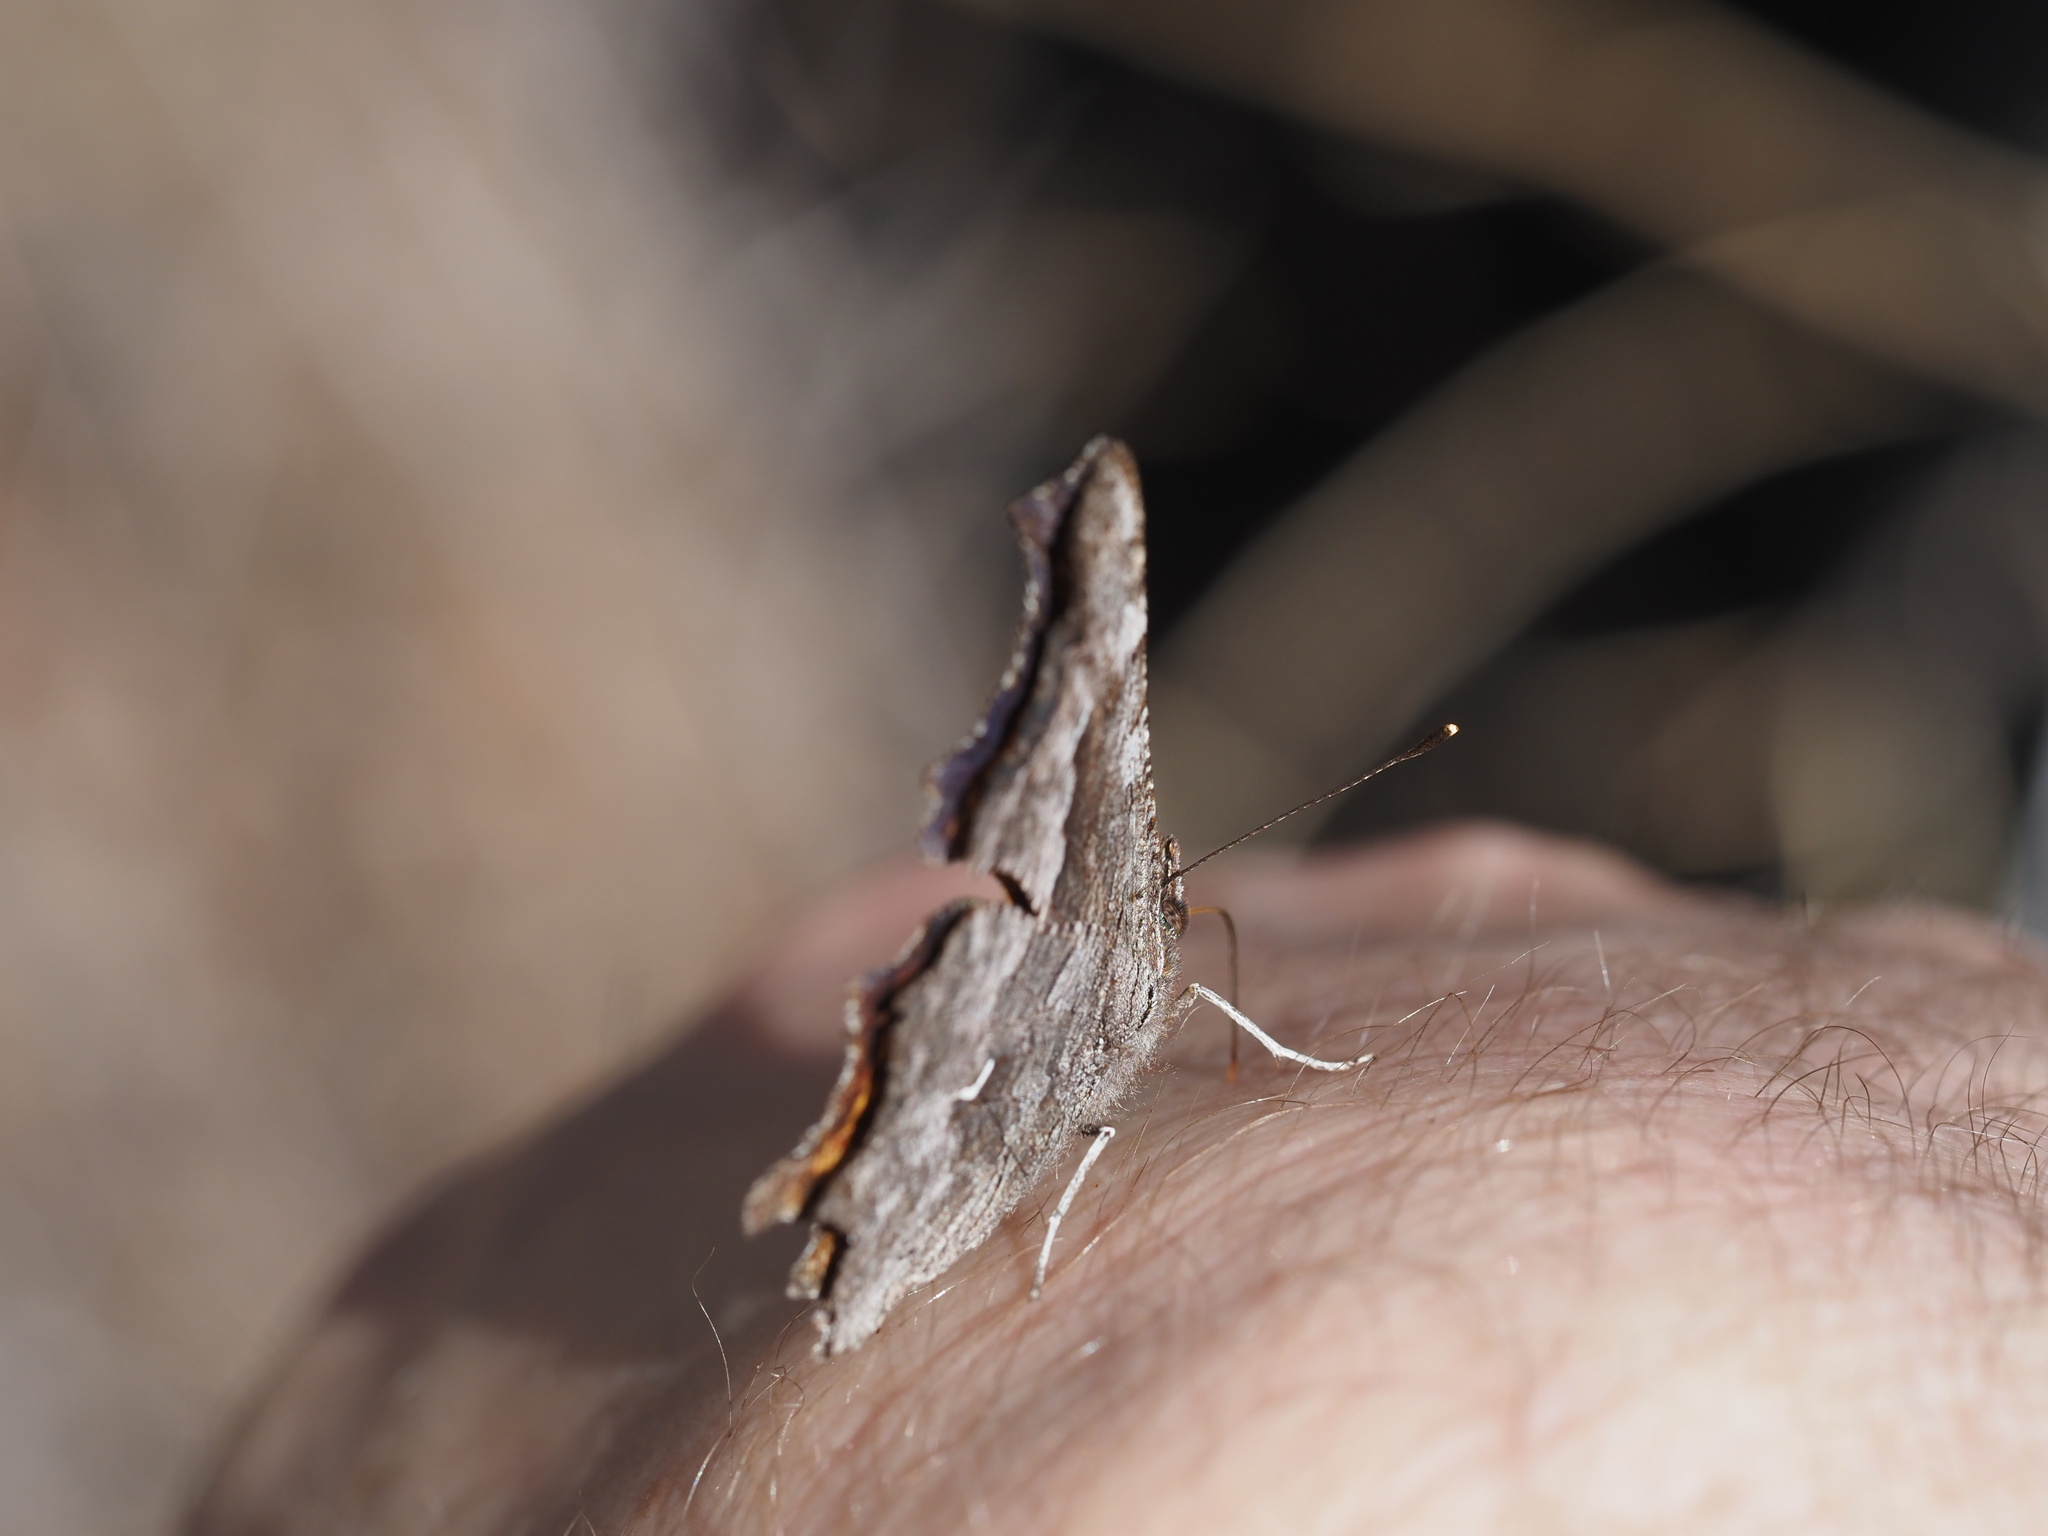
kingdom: Animalia
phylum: Arthropoda
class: Insecta
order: Lepidoptera
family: Nymphalidae
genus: Polygonia
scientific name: Polygonia gracilis
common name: Hoary comma
